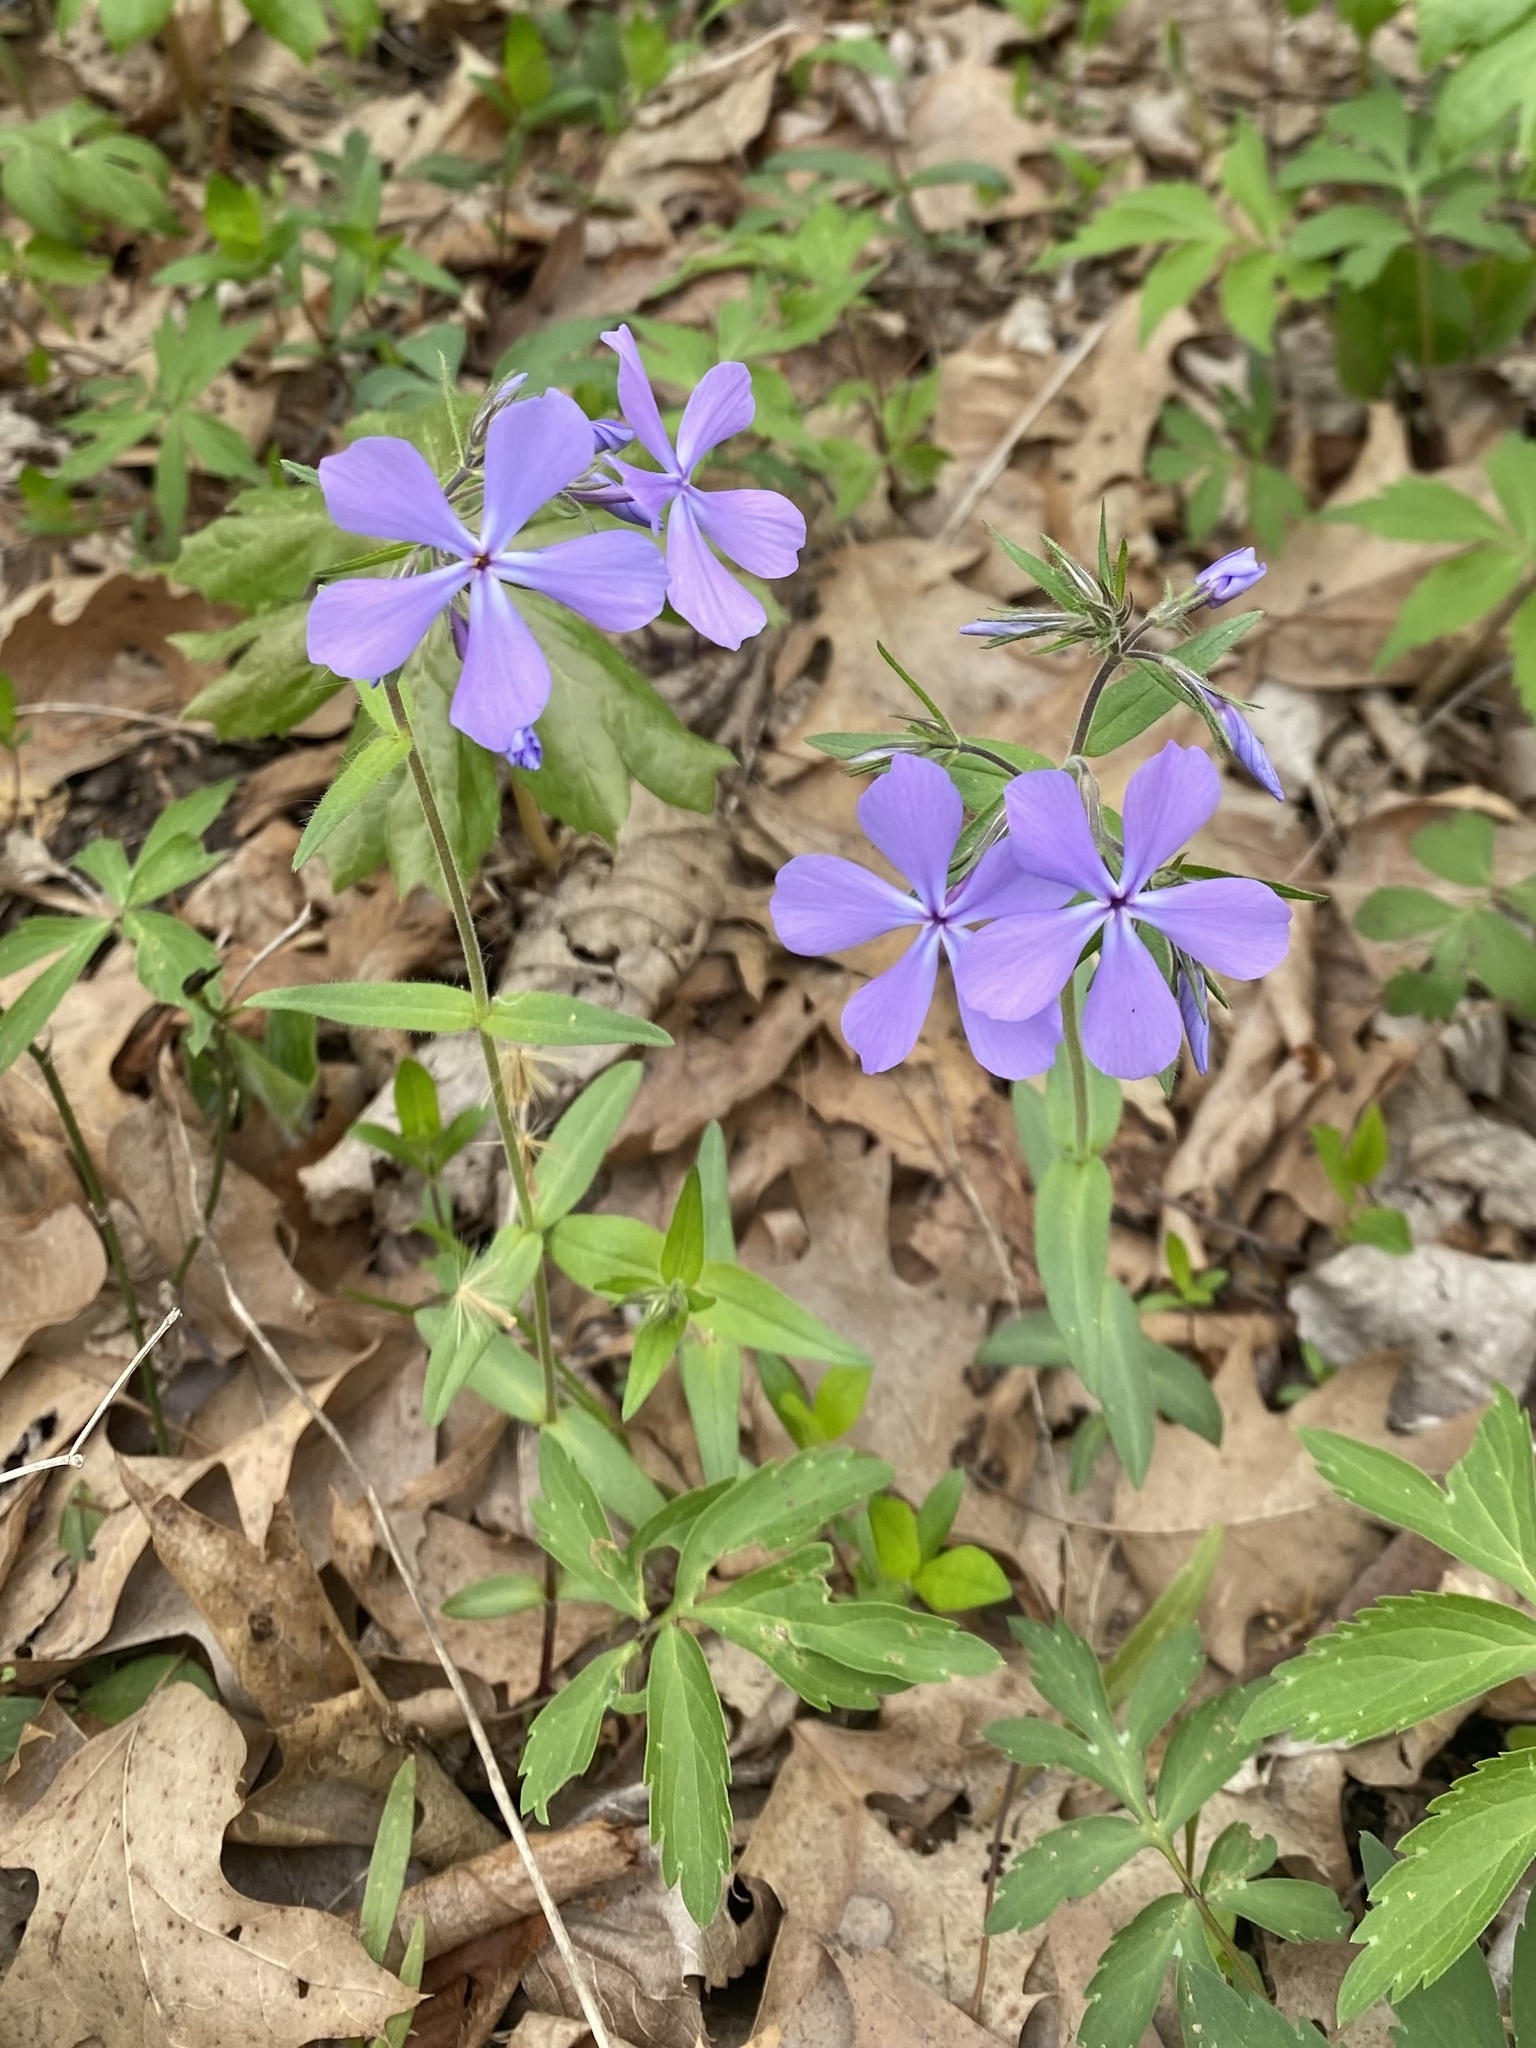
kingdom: Plantae
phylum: Tracheophyta
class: Magnoliopsida
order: Ericales
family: Polemoniaceae
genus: Phlox
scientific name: Phlox divaricata
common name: Blue phlox
